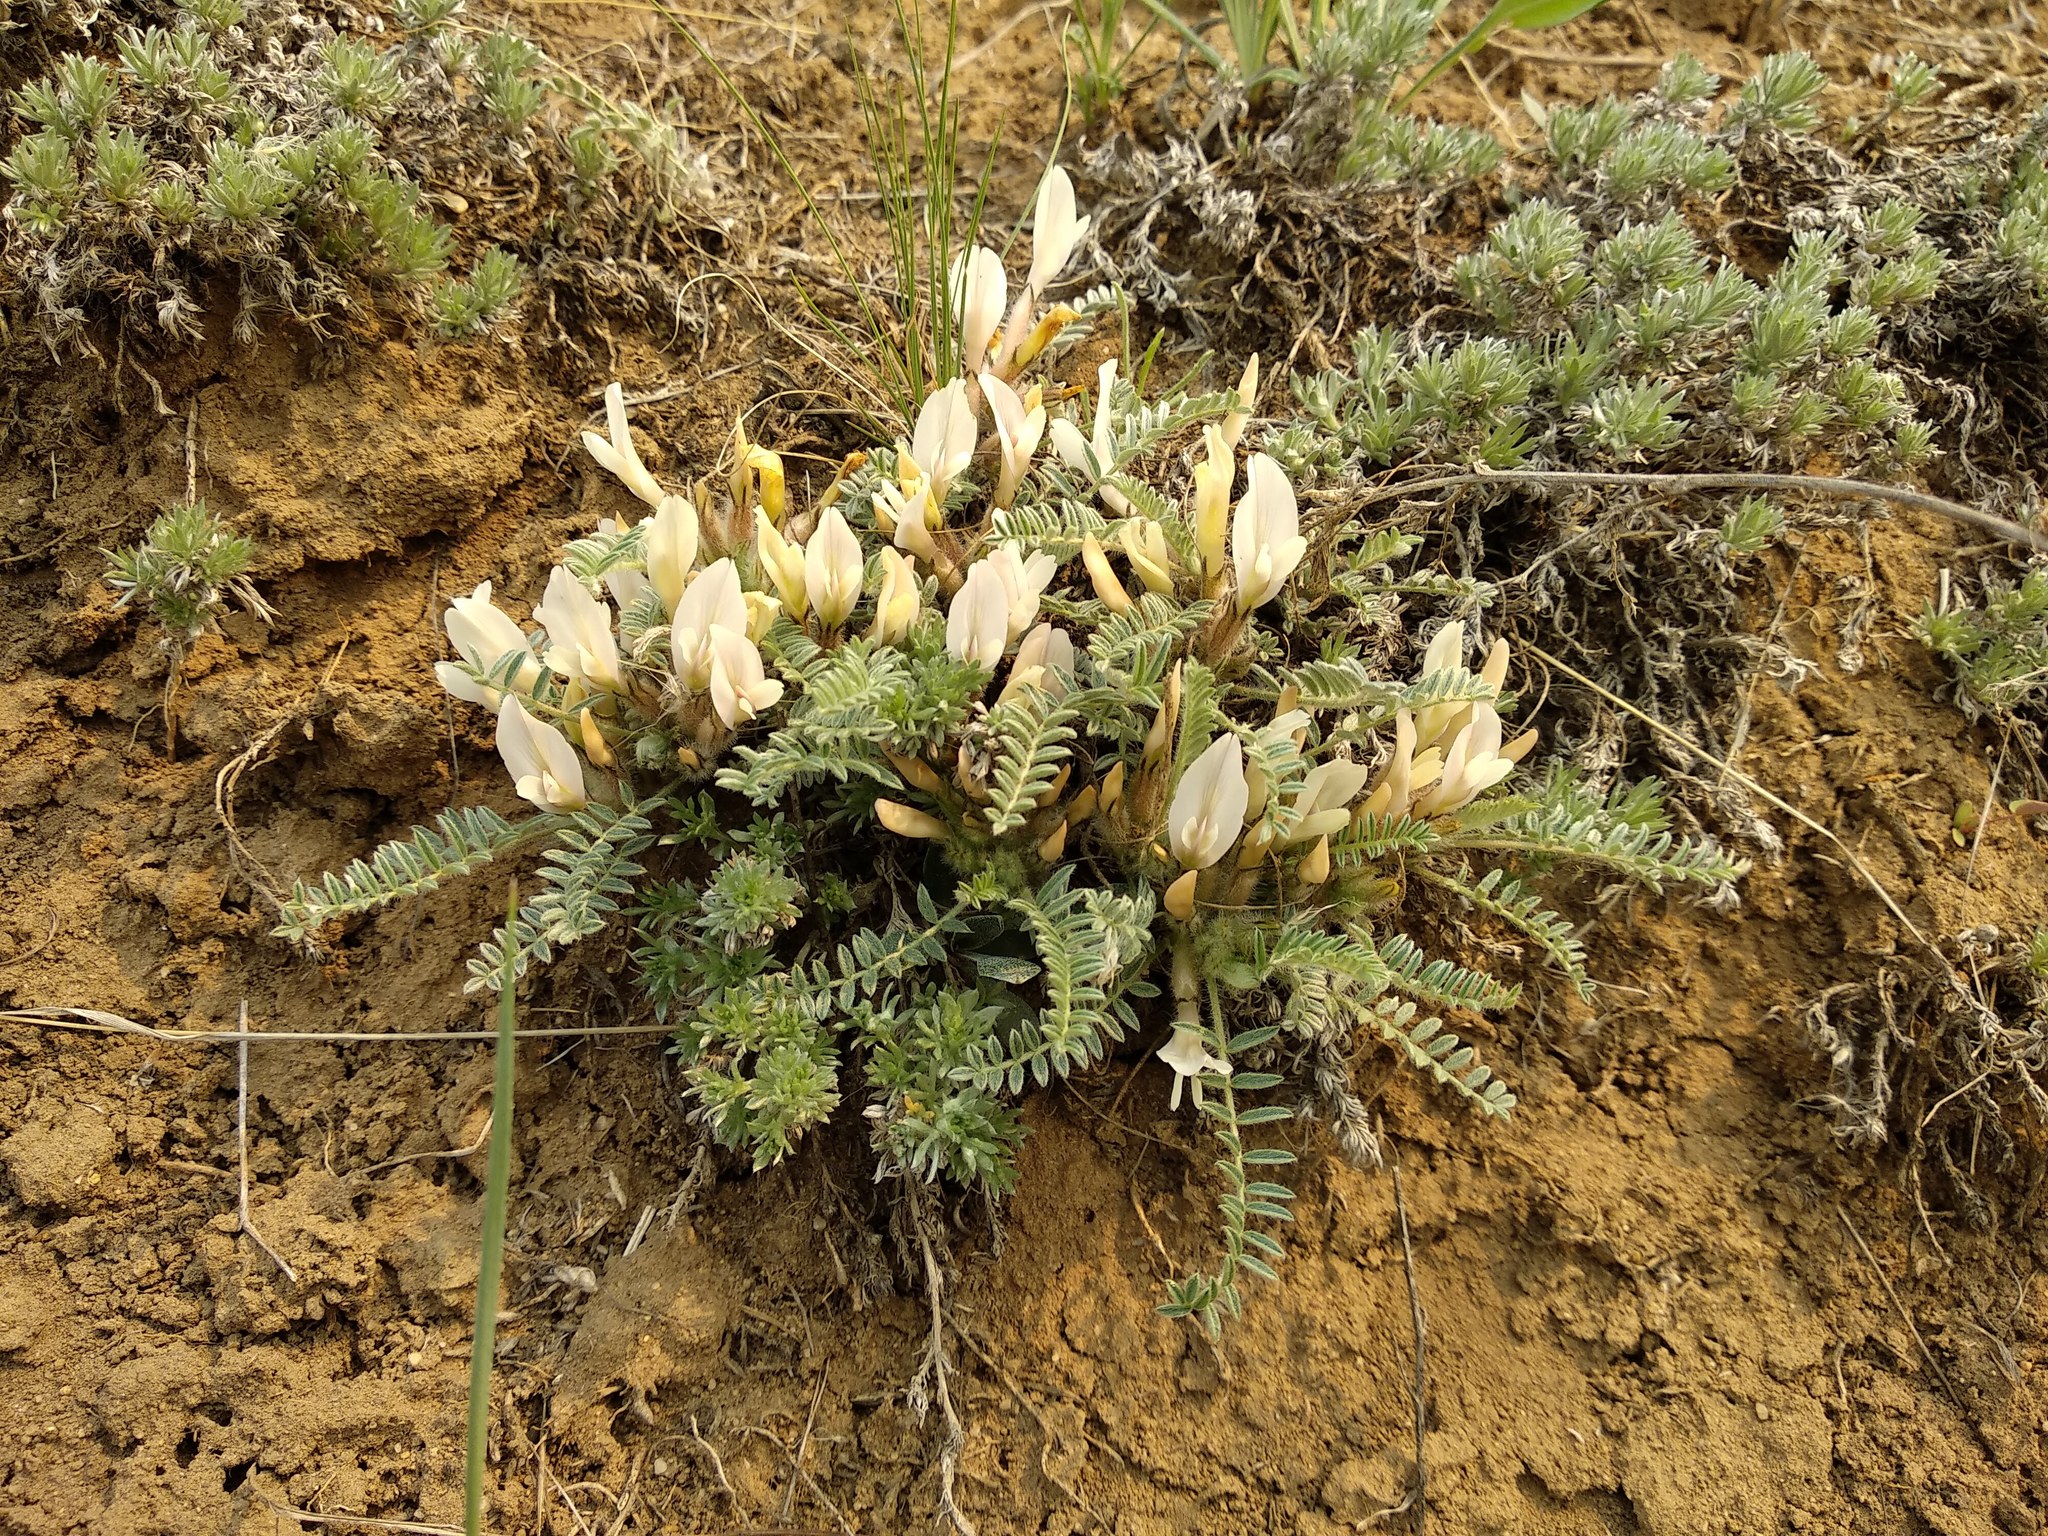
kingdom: Plantae
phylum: Tracheophyta
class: Magnoliopsida
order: Fabales
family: Fabaceae
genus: Astragalus
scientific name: Astragalus testiculatus
